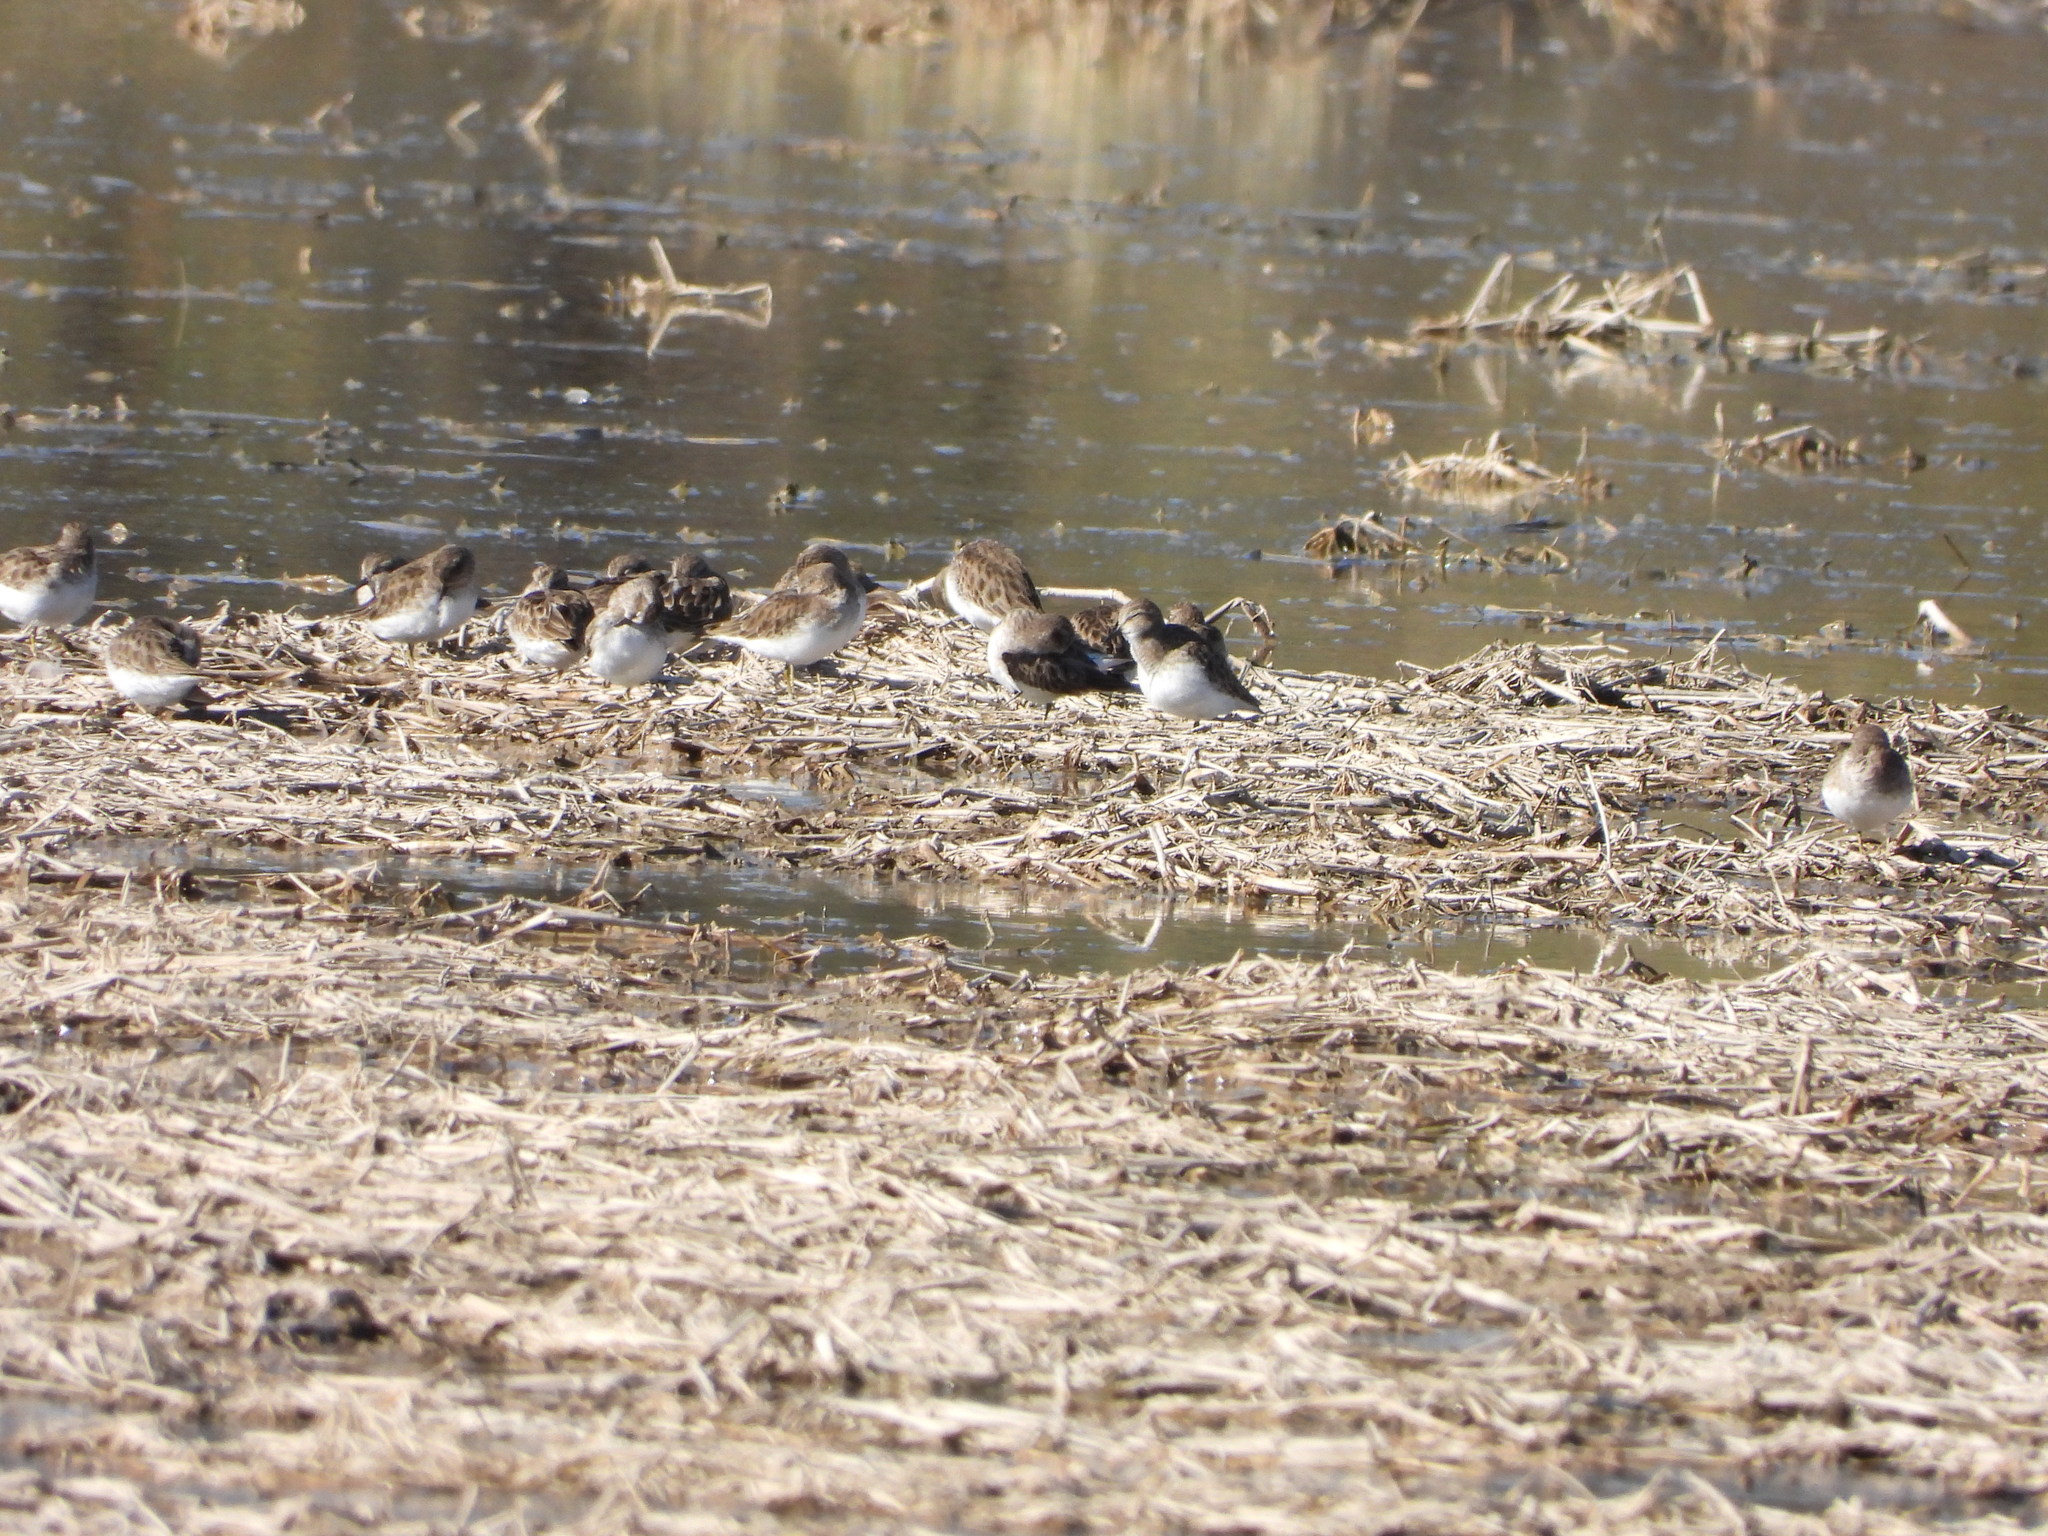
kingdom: Animalia
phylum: Chordata
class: Aves
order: Charadriiformes
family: Scolopacidae
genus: Calidris
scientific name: Calidris minutilla
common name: Least sandpiper
